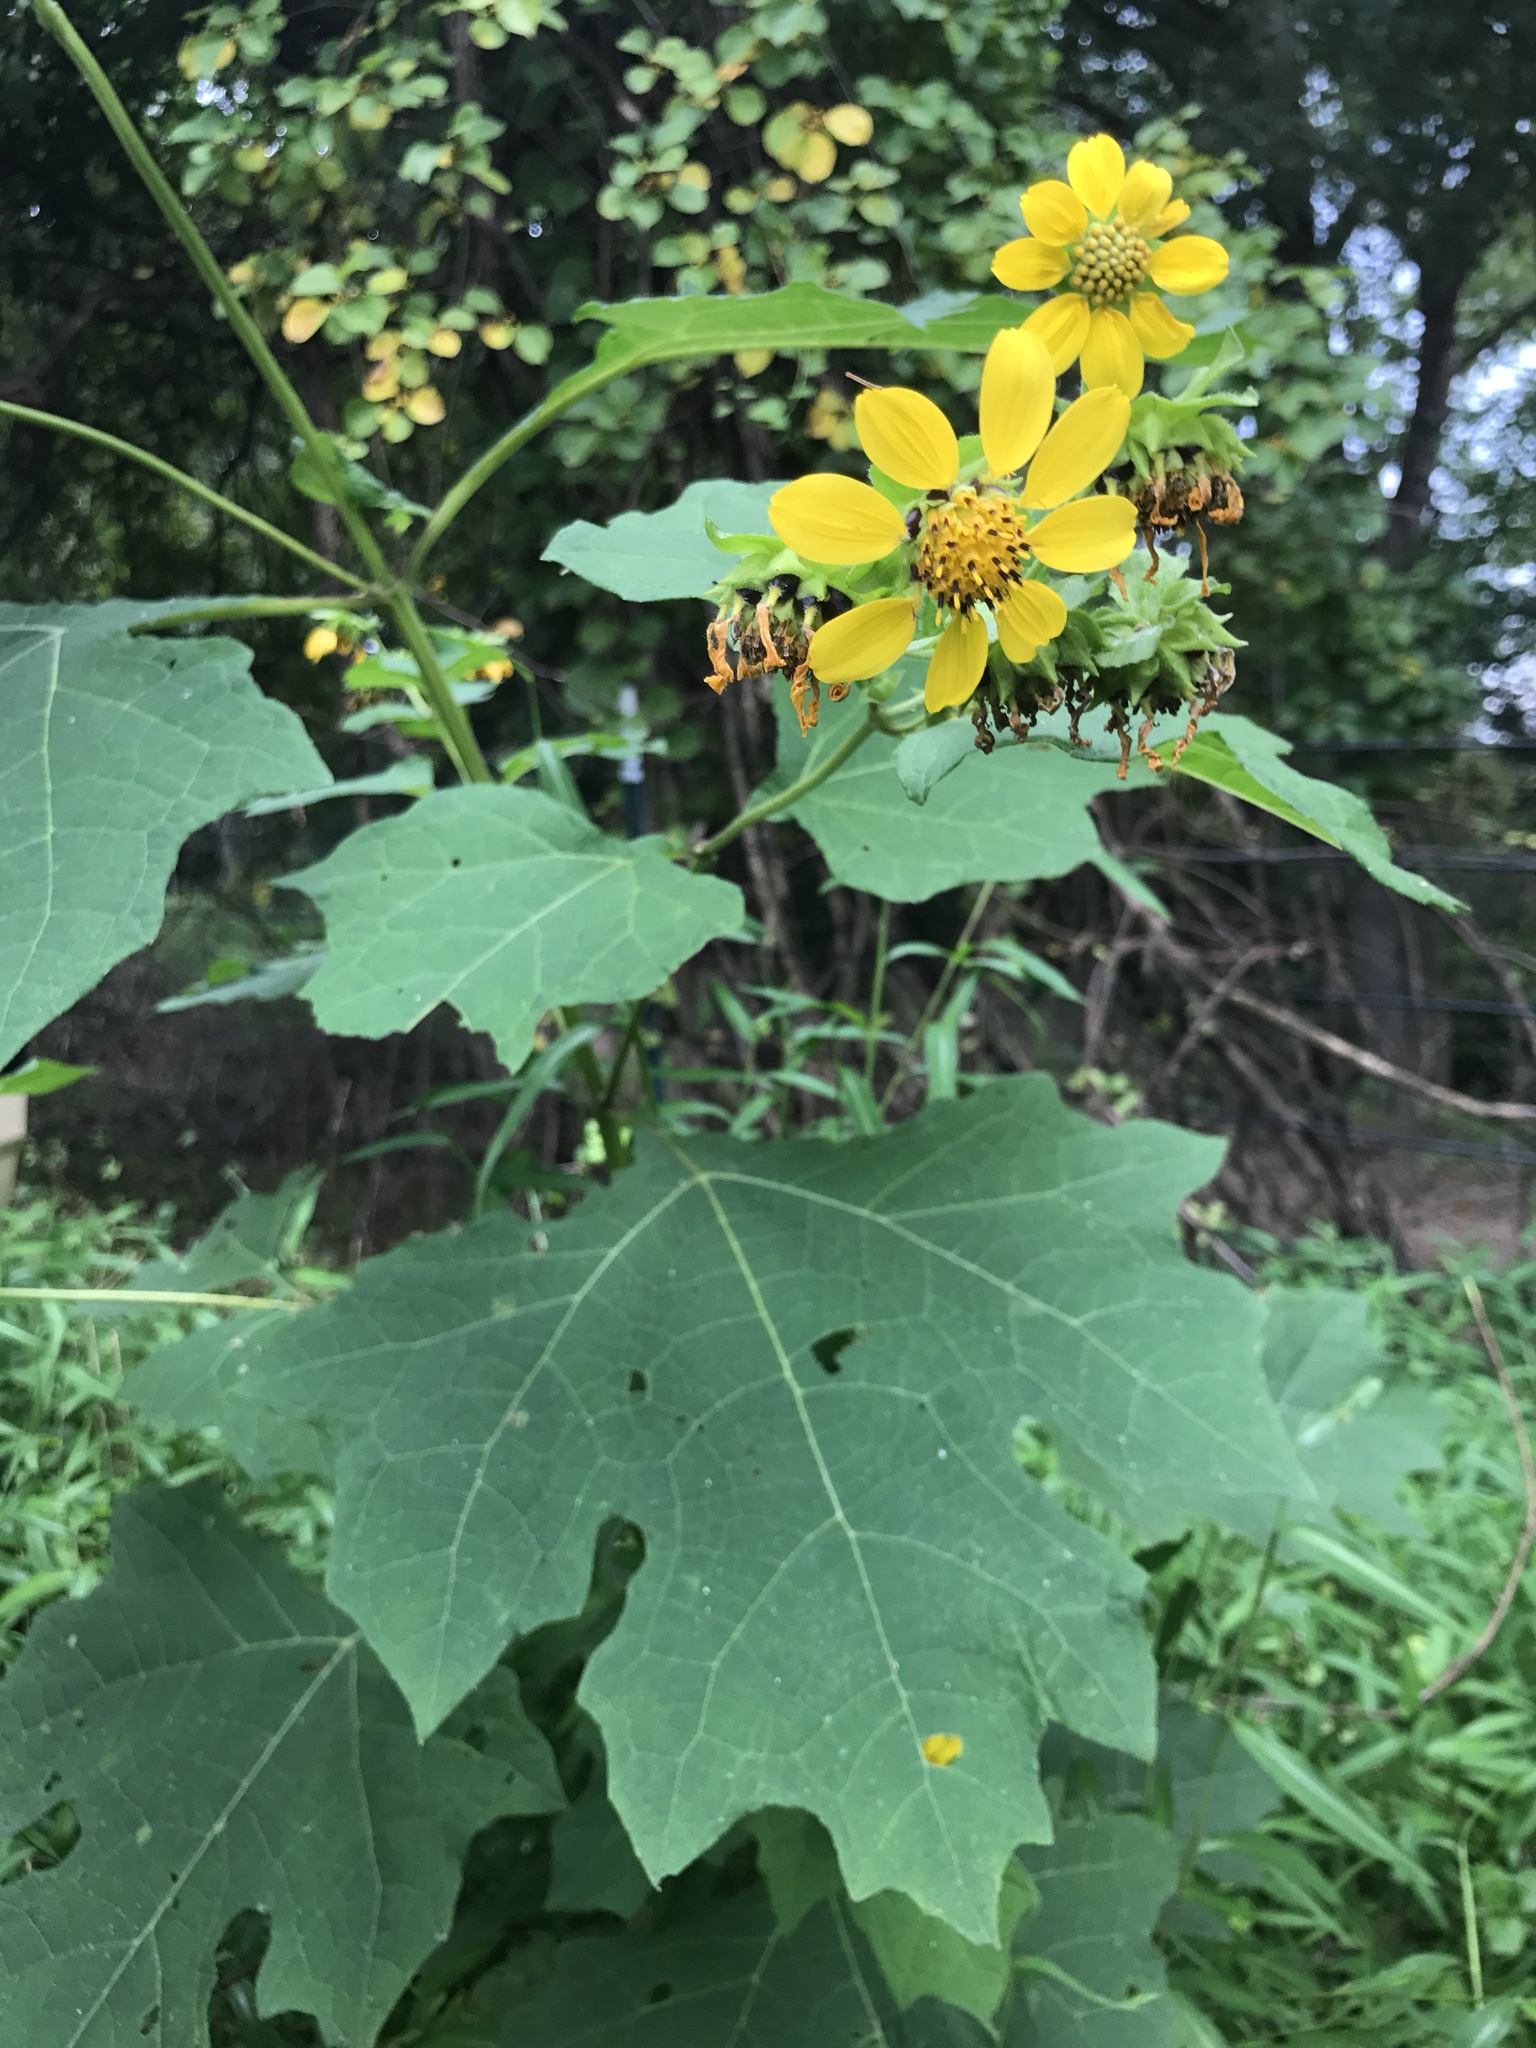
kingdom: Plantae
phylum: Tracheophyta
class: Magnoliopsida
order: Asterales
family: Asteraceae
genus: Smallanthus
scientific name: Smallanthus uvedalia
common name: Bear's-foot
